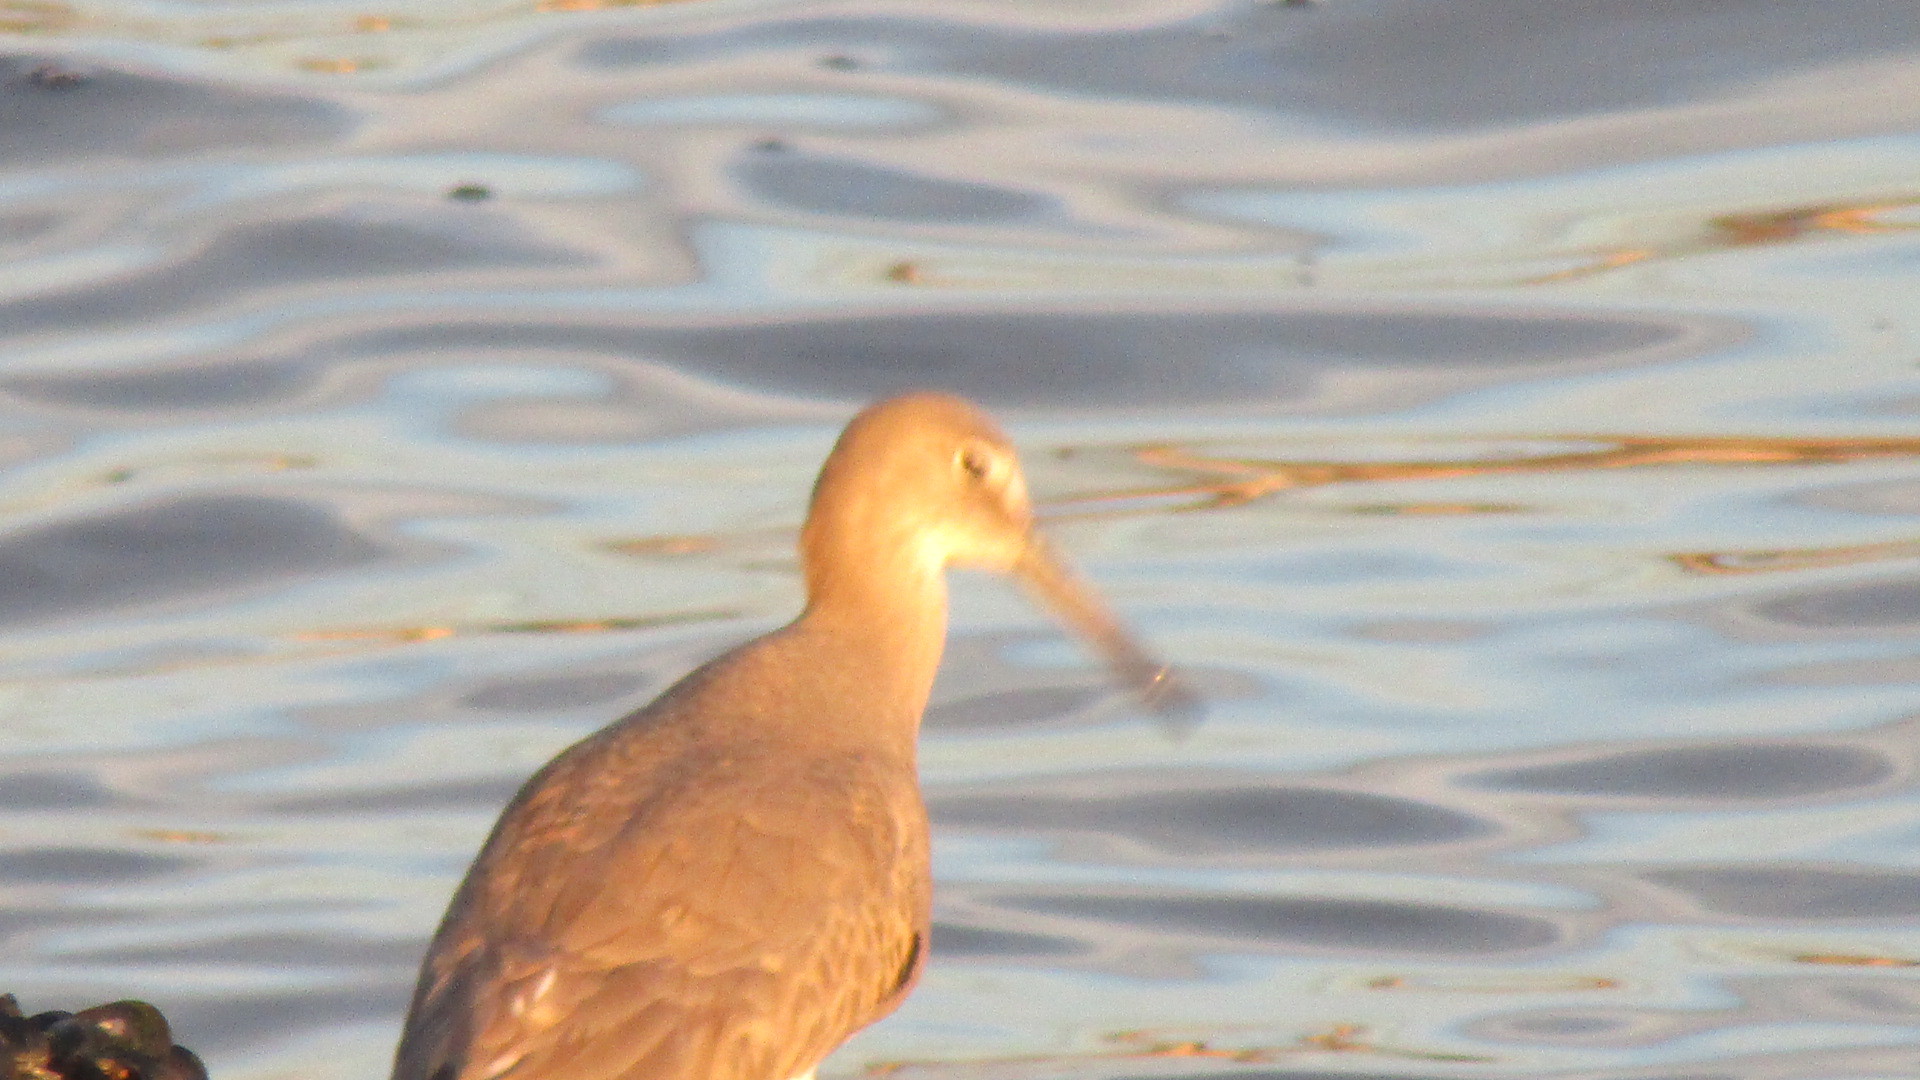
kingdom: Animalia
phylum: Chordata
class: Aves
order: Charadriiformes
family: Scolopacidae
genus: Tringa
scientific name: Tringa semipalmata
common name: Willet
